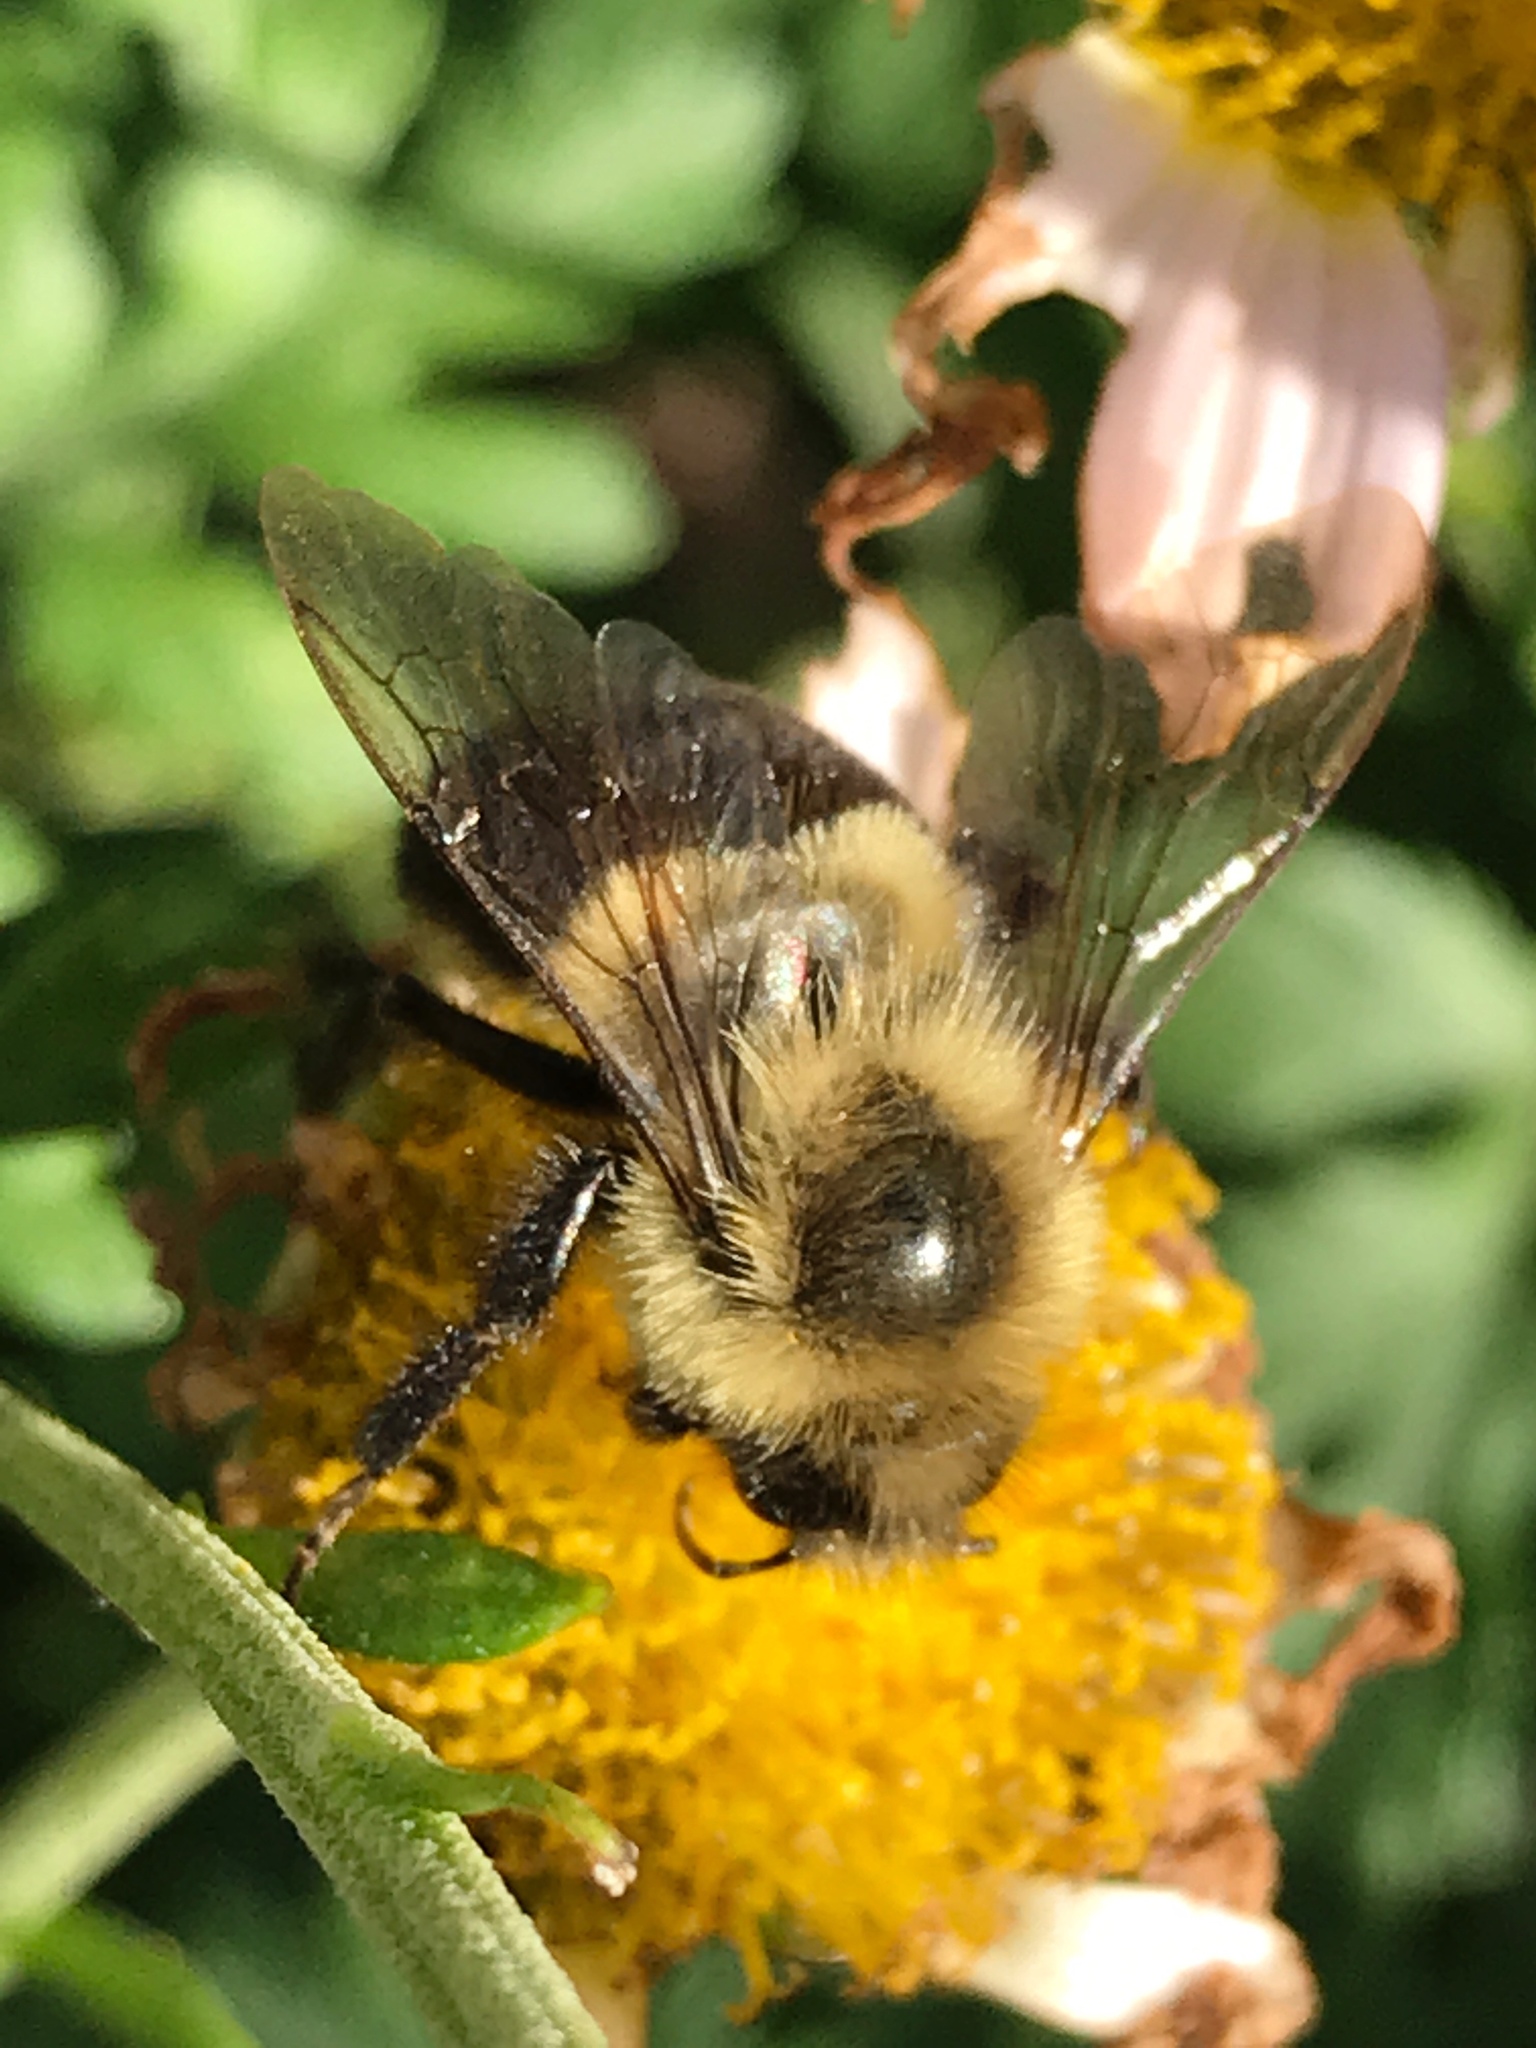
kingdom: Animalia
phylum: Arthropoda
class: Insecta
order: Hymenoptera
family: Apidae
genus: Bombus
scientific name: Bombus impatiens
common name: Common eastern bumble bee
